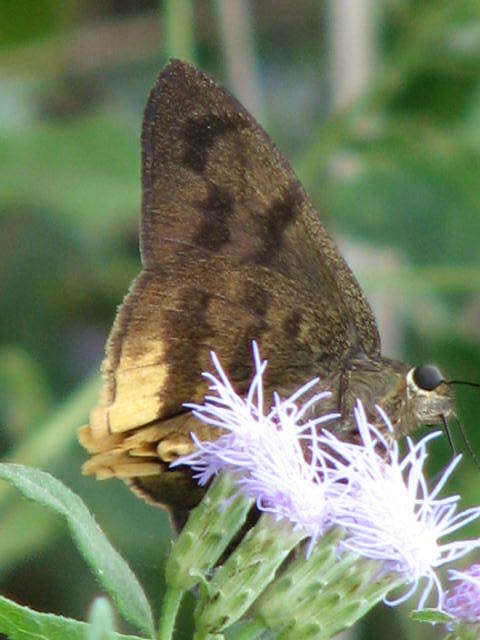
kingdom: Animalia
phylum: Arthropoda
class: Insecta
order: Lepidoptera
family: Hesperiidae
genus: Astraptes
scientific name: Astraptes anaphus
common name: Yellow-tipped flasher
